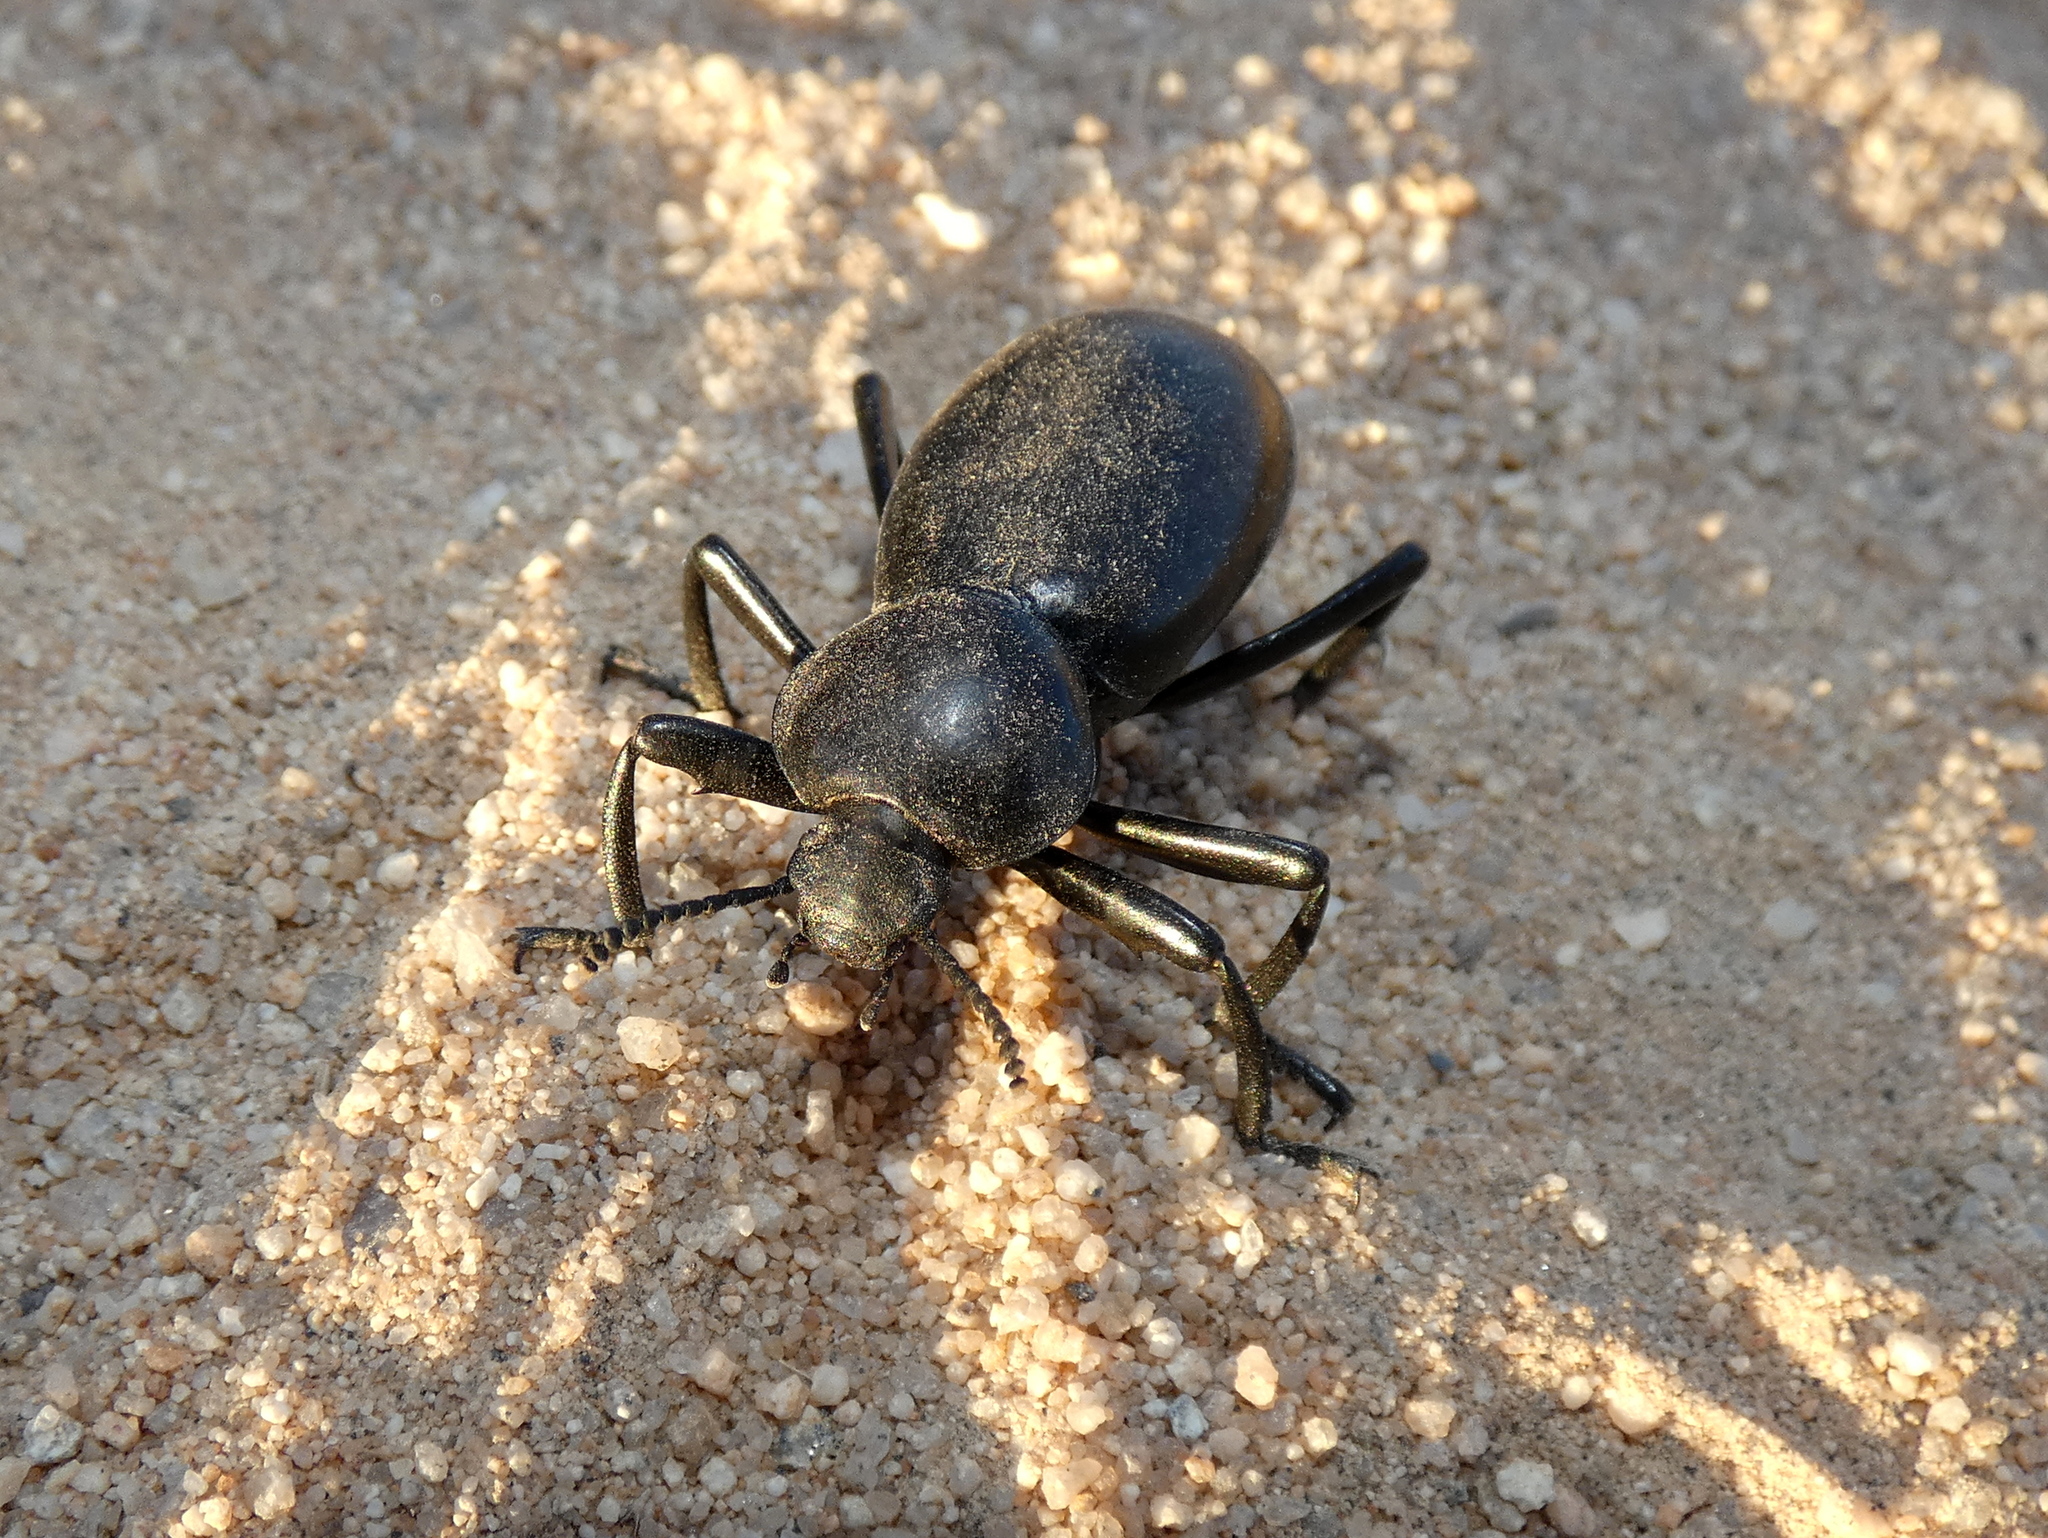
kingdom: Animalia
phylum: Arthropoda
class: Insecta
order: Coleoptera
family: Tenebrionidae
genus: Eleodes
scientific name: Eleodes grandicollis
